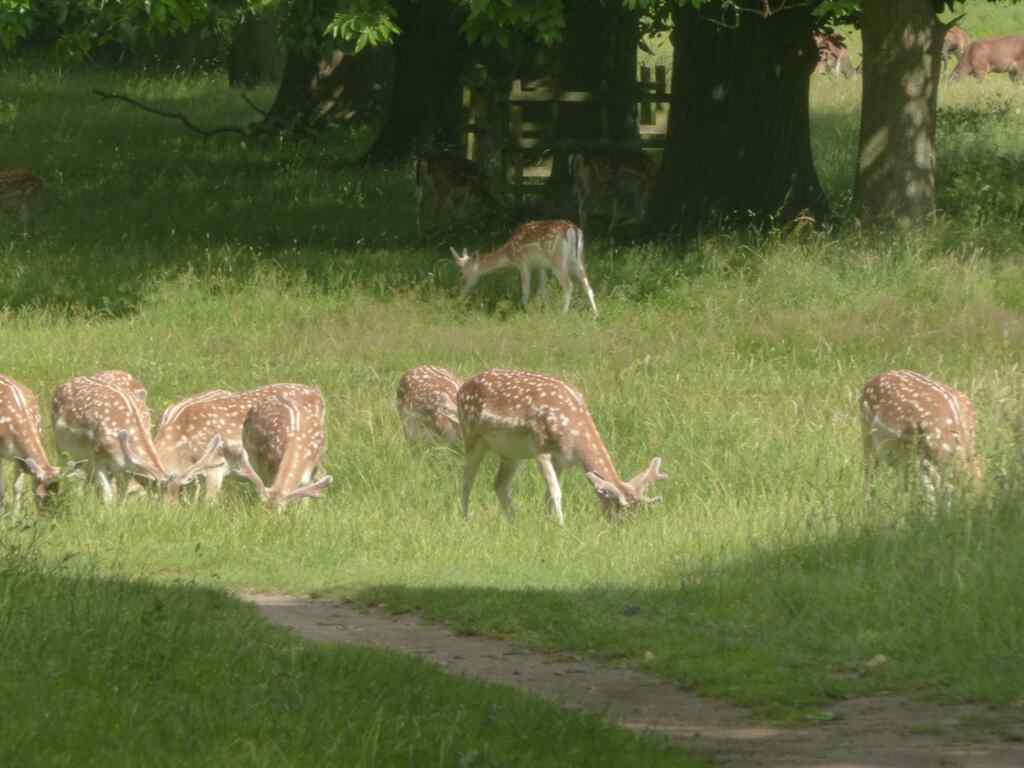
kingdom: Animalia
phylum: Chordata
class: Mammalia
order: Artiodactyla
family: Cervidae
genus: Dama
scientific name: Dama dama
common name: Fallow deer
